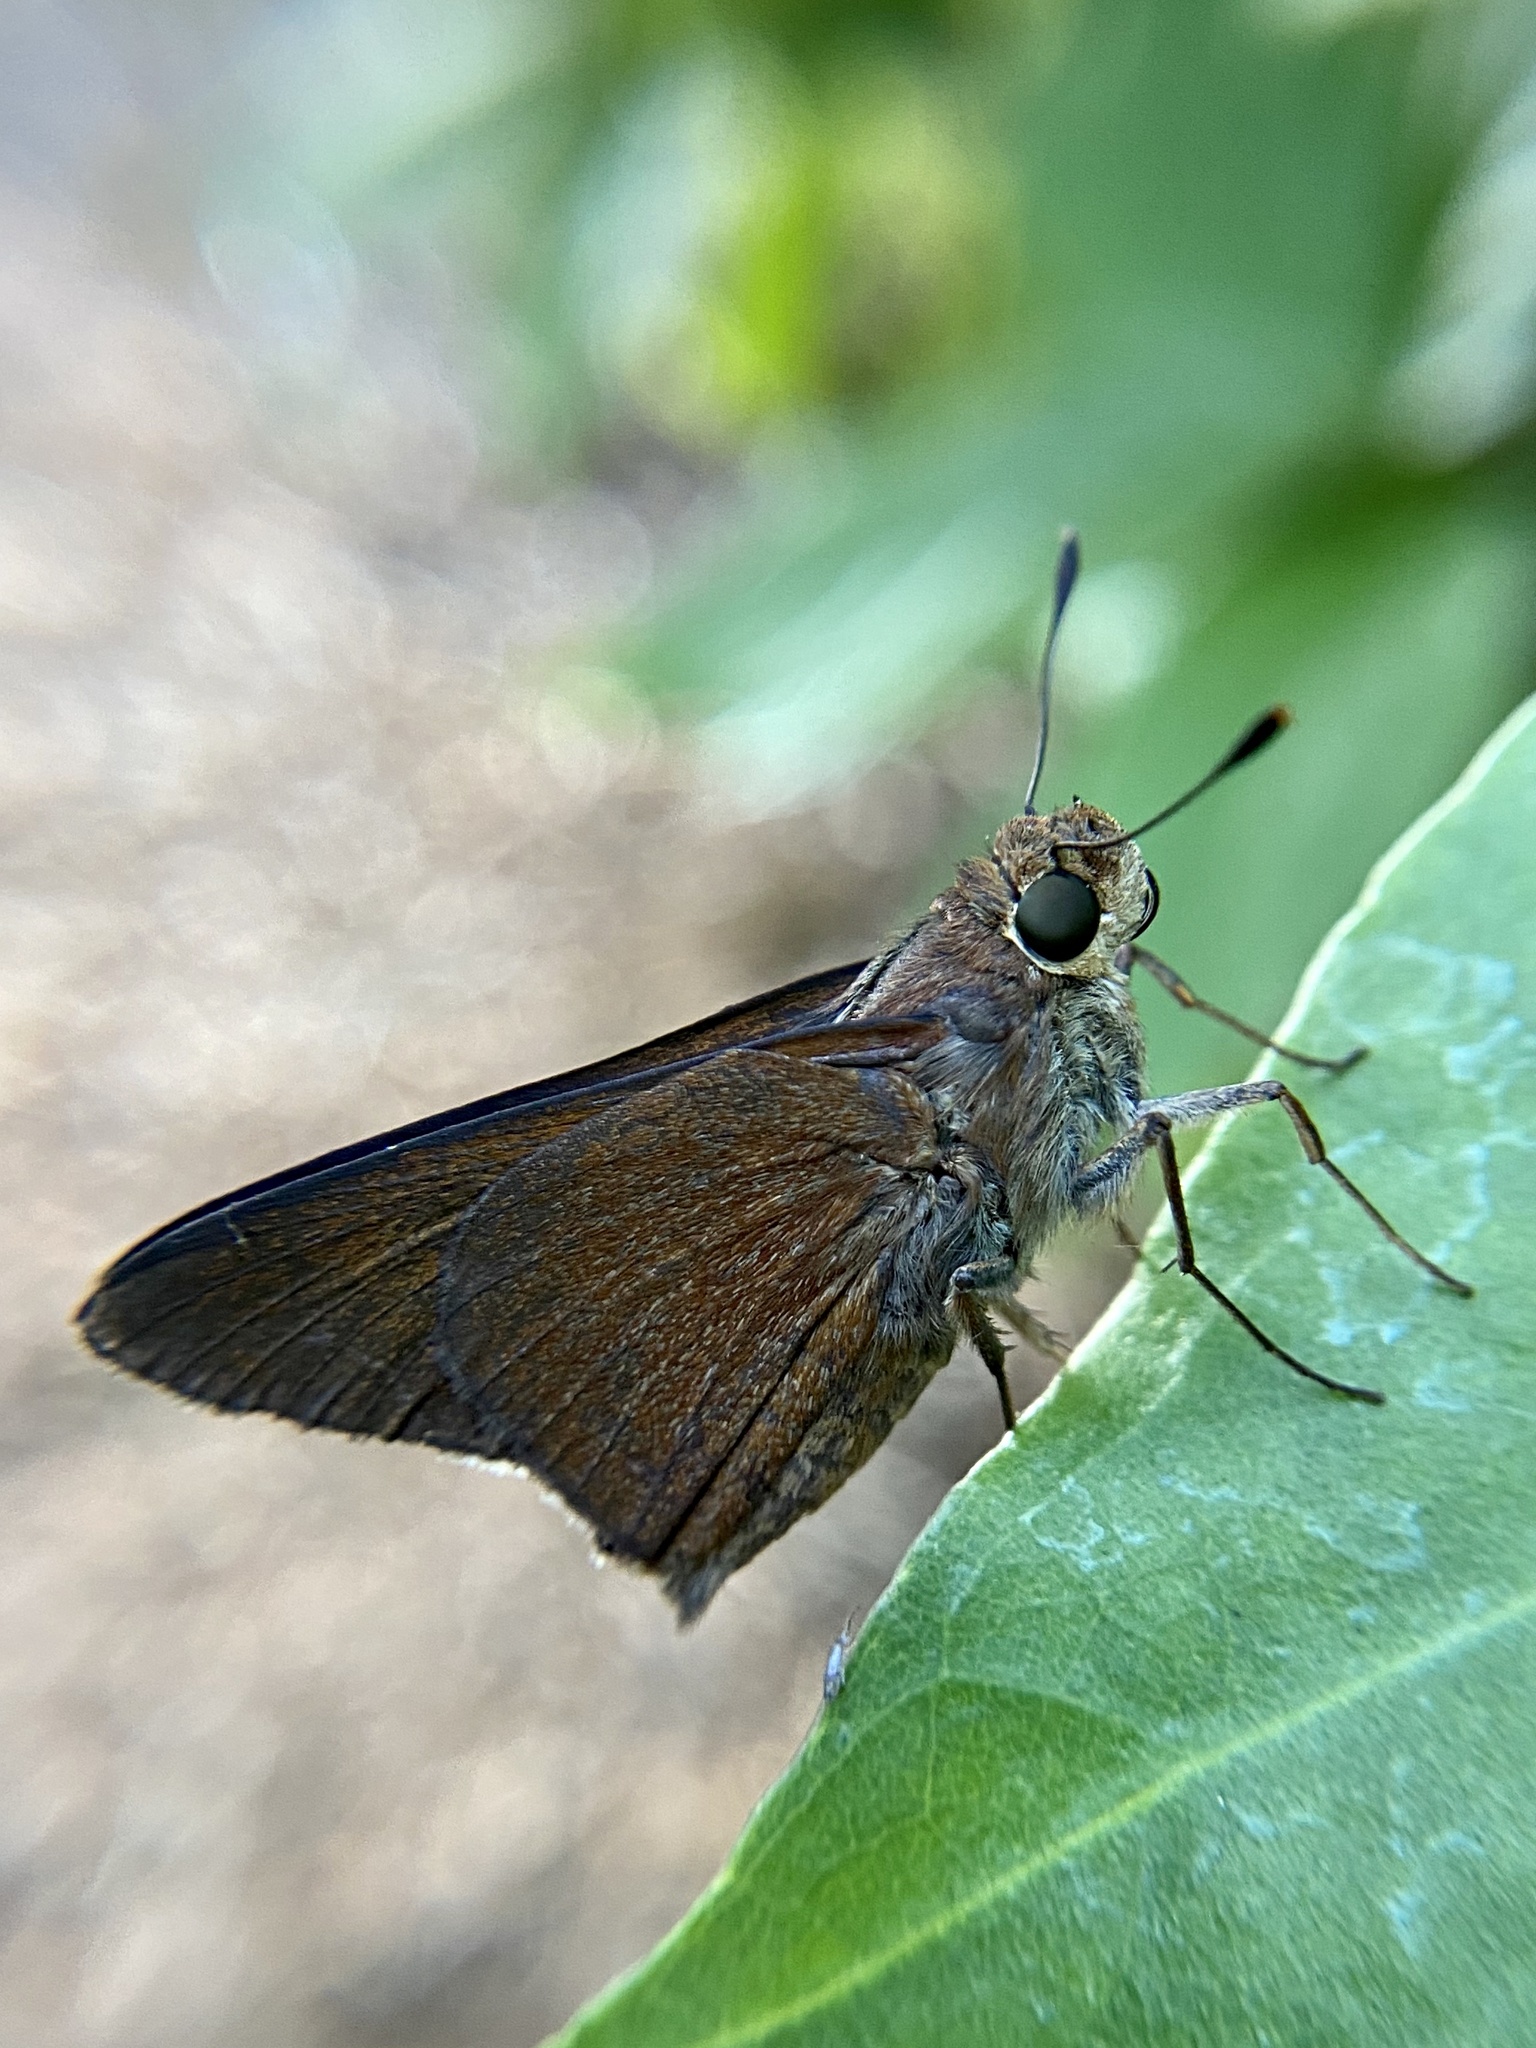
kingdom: Animalia
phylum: Arthropoda
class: Insecta
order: Lepidoptera
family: Hesperiidae
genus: Asbolis
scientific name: Asbolis capucinus
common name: Monk skipper
